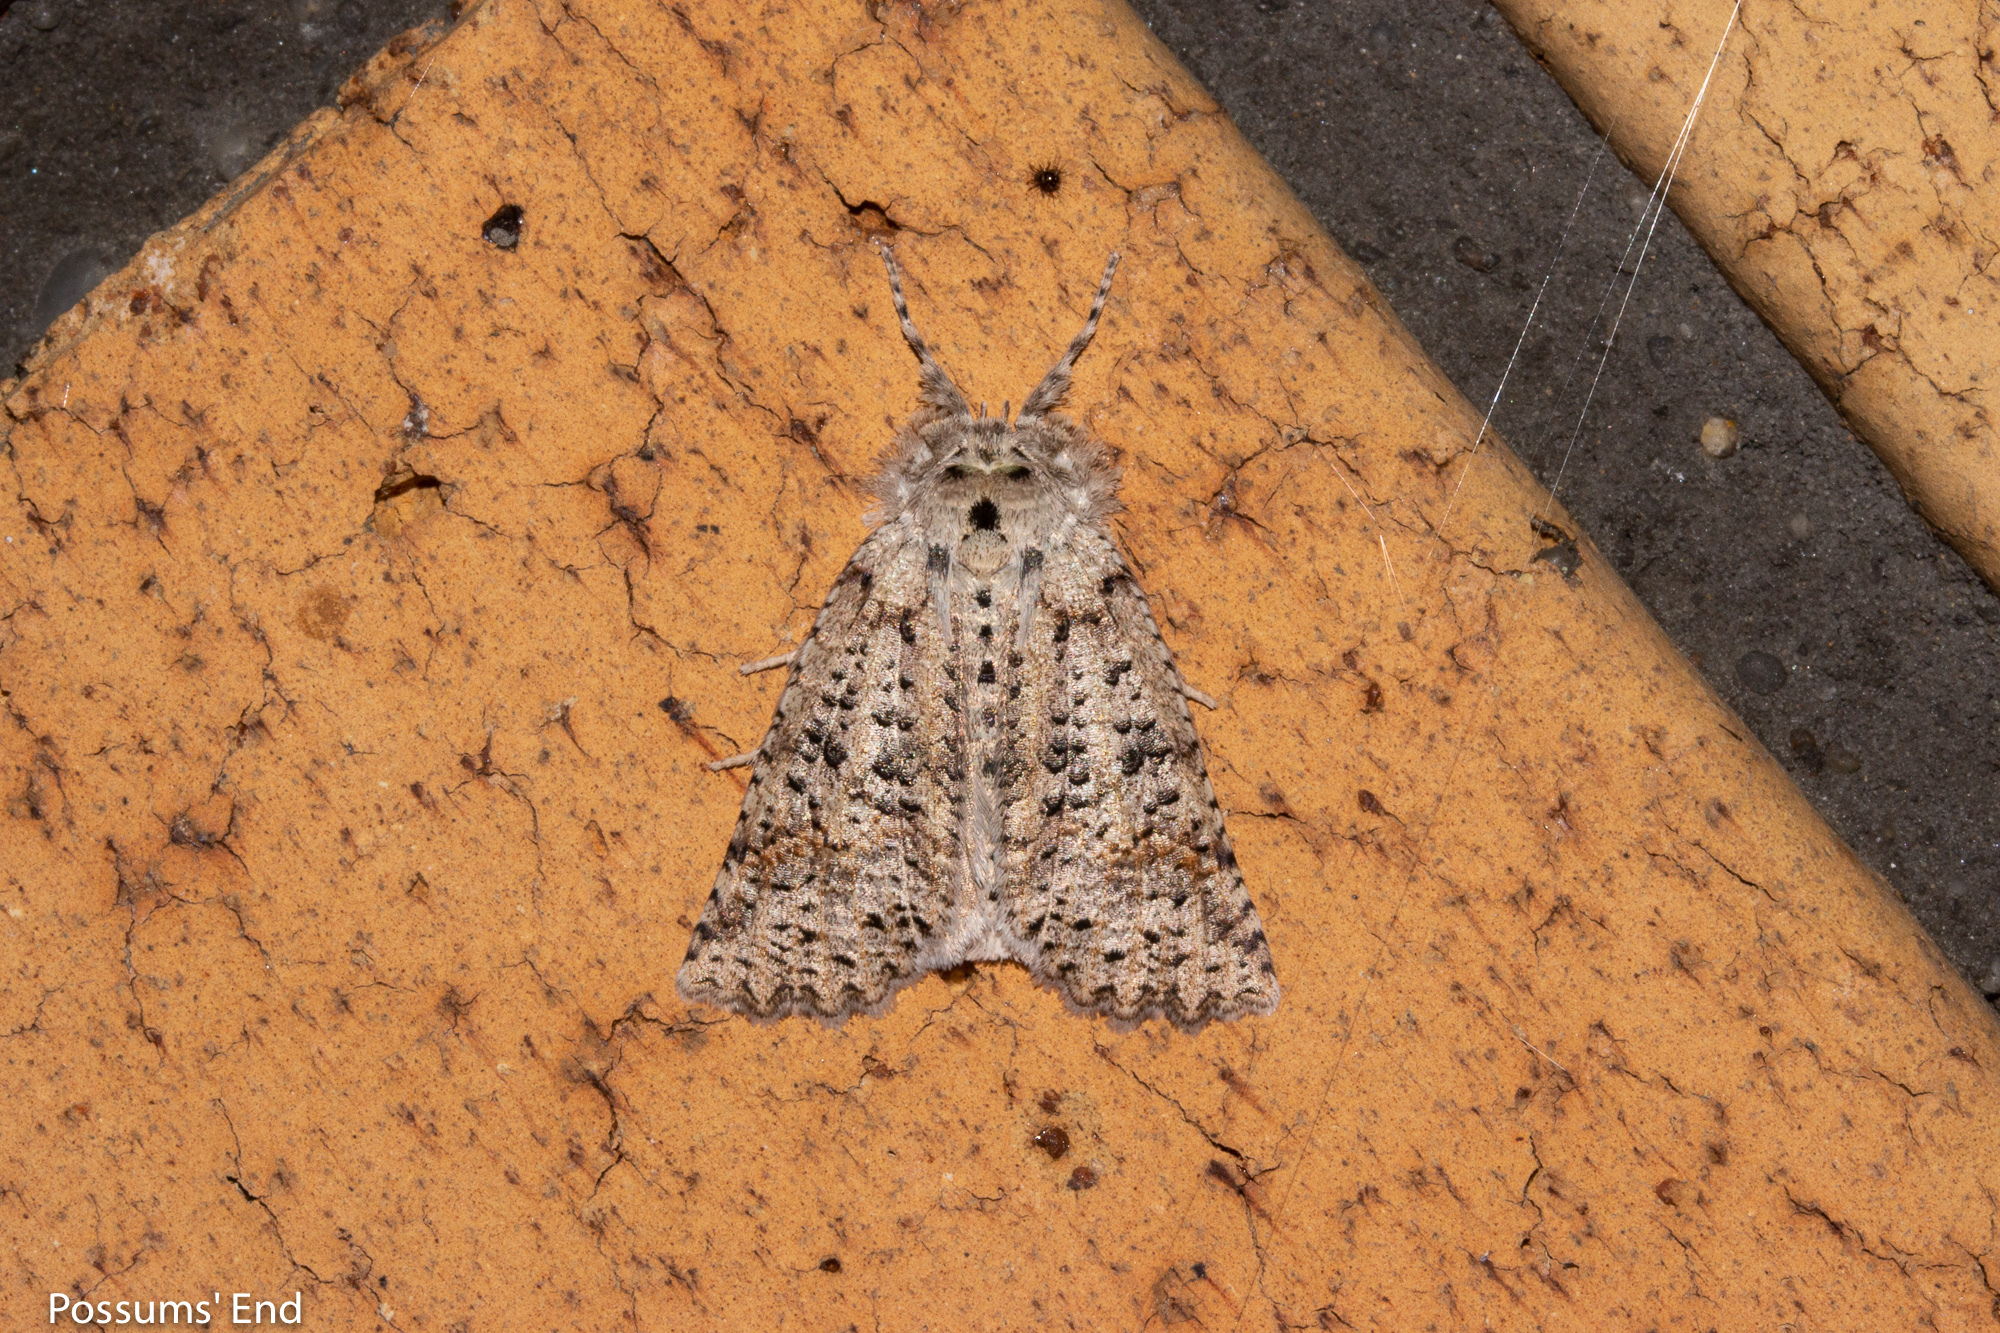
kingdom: Animalia
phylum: Arthropoda
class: Insecta
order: Lepidoptera
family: Geometridae
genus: Declana
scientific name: Declana floccosa
